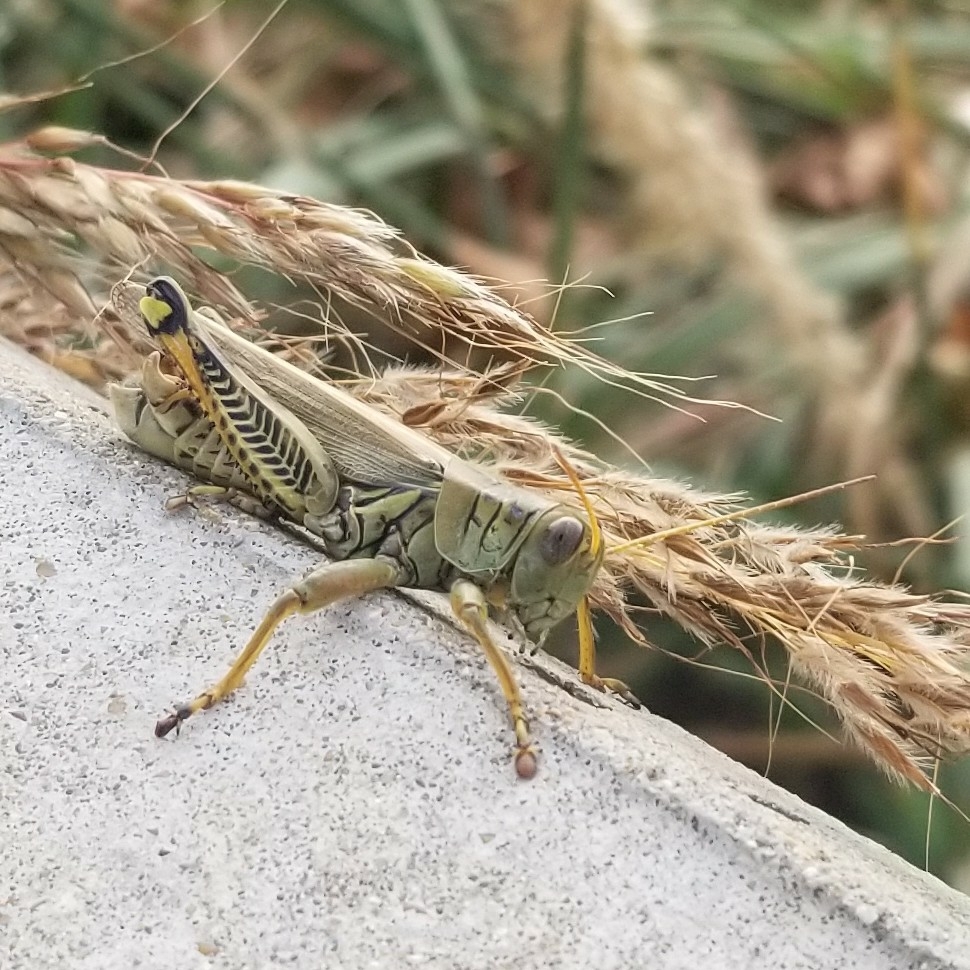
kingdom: Animalia
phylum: Arthropoda
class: Insecta
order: Orthoptera
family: Acrididae
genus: Melanoplus
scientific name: Melanoplus differentialis
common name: Differential grasshopper
